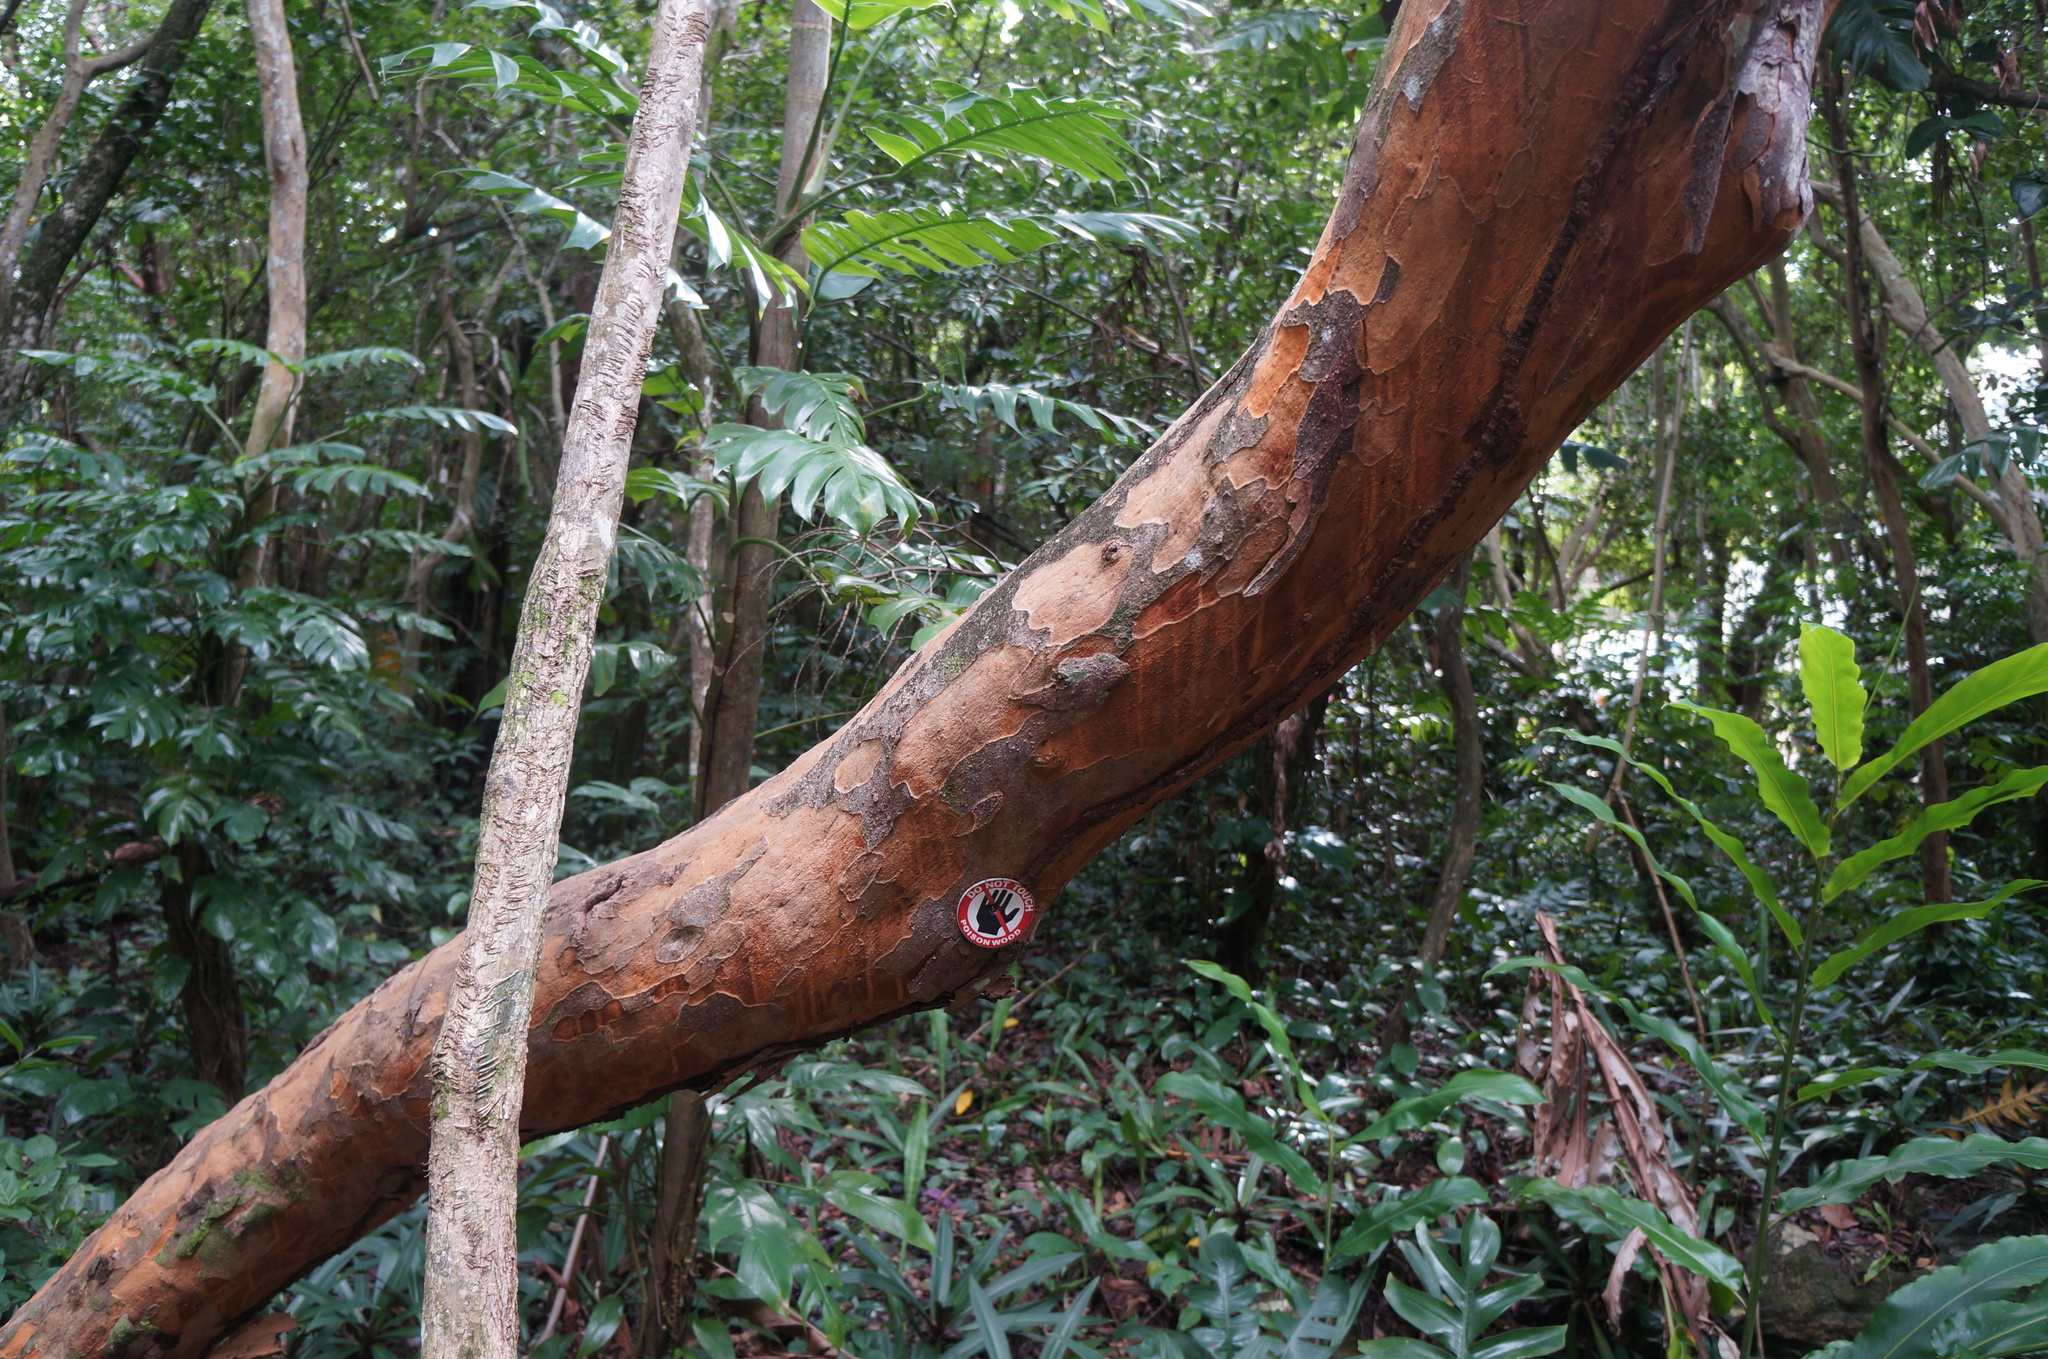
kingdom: Plantae
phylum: Tracheophyta
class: Magnoliopsida
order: Sapindales
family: Anacardiaceae
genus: Metopium
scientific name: Metopium toxiferum
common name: Florida poisontree
